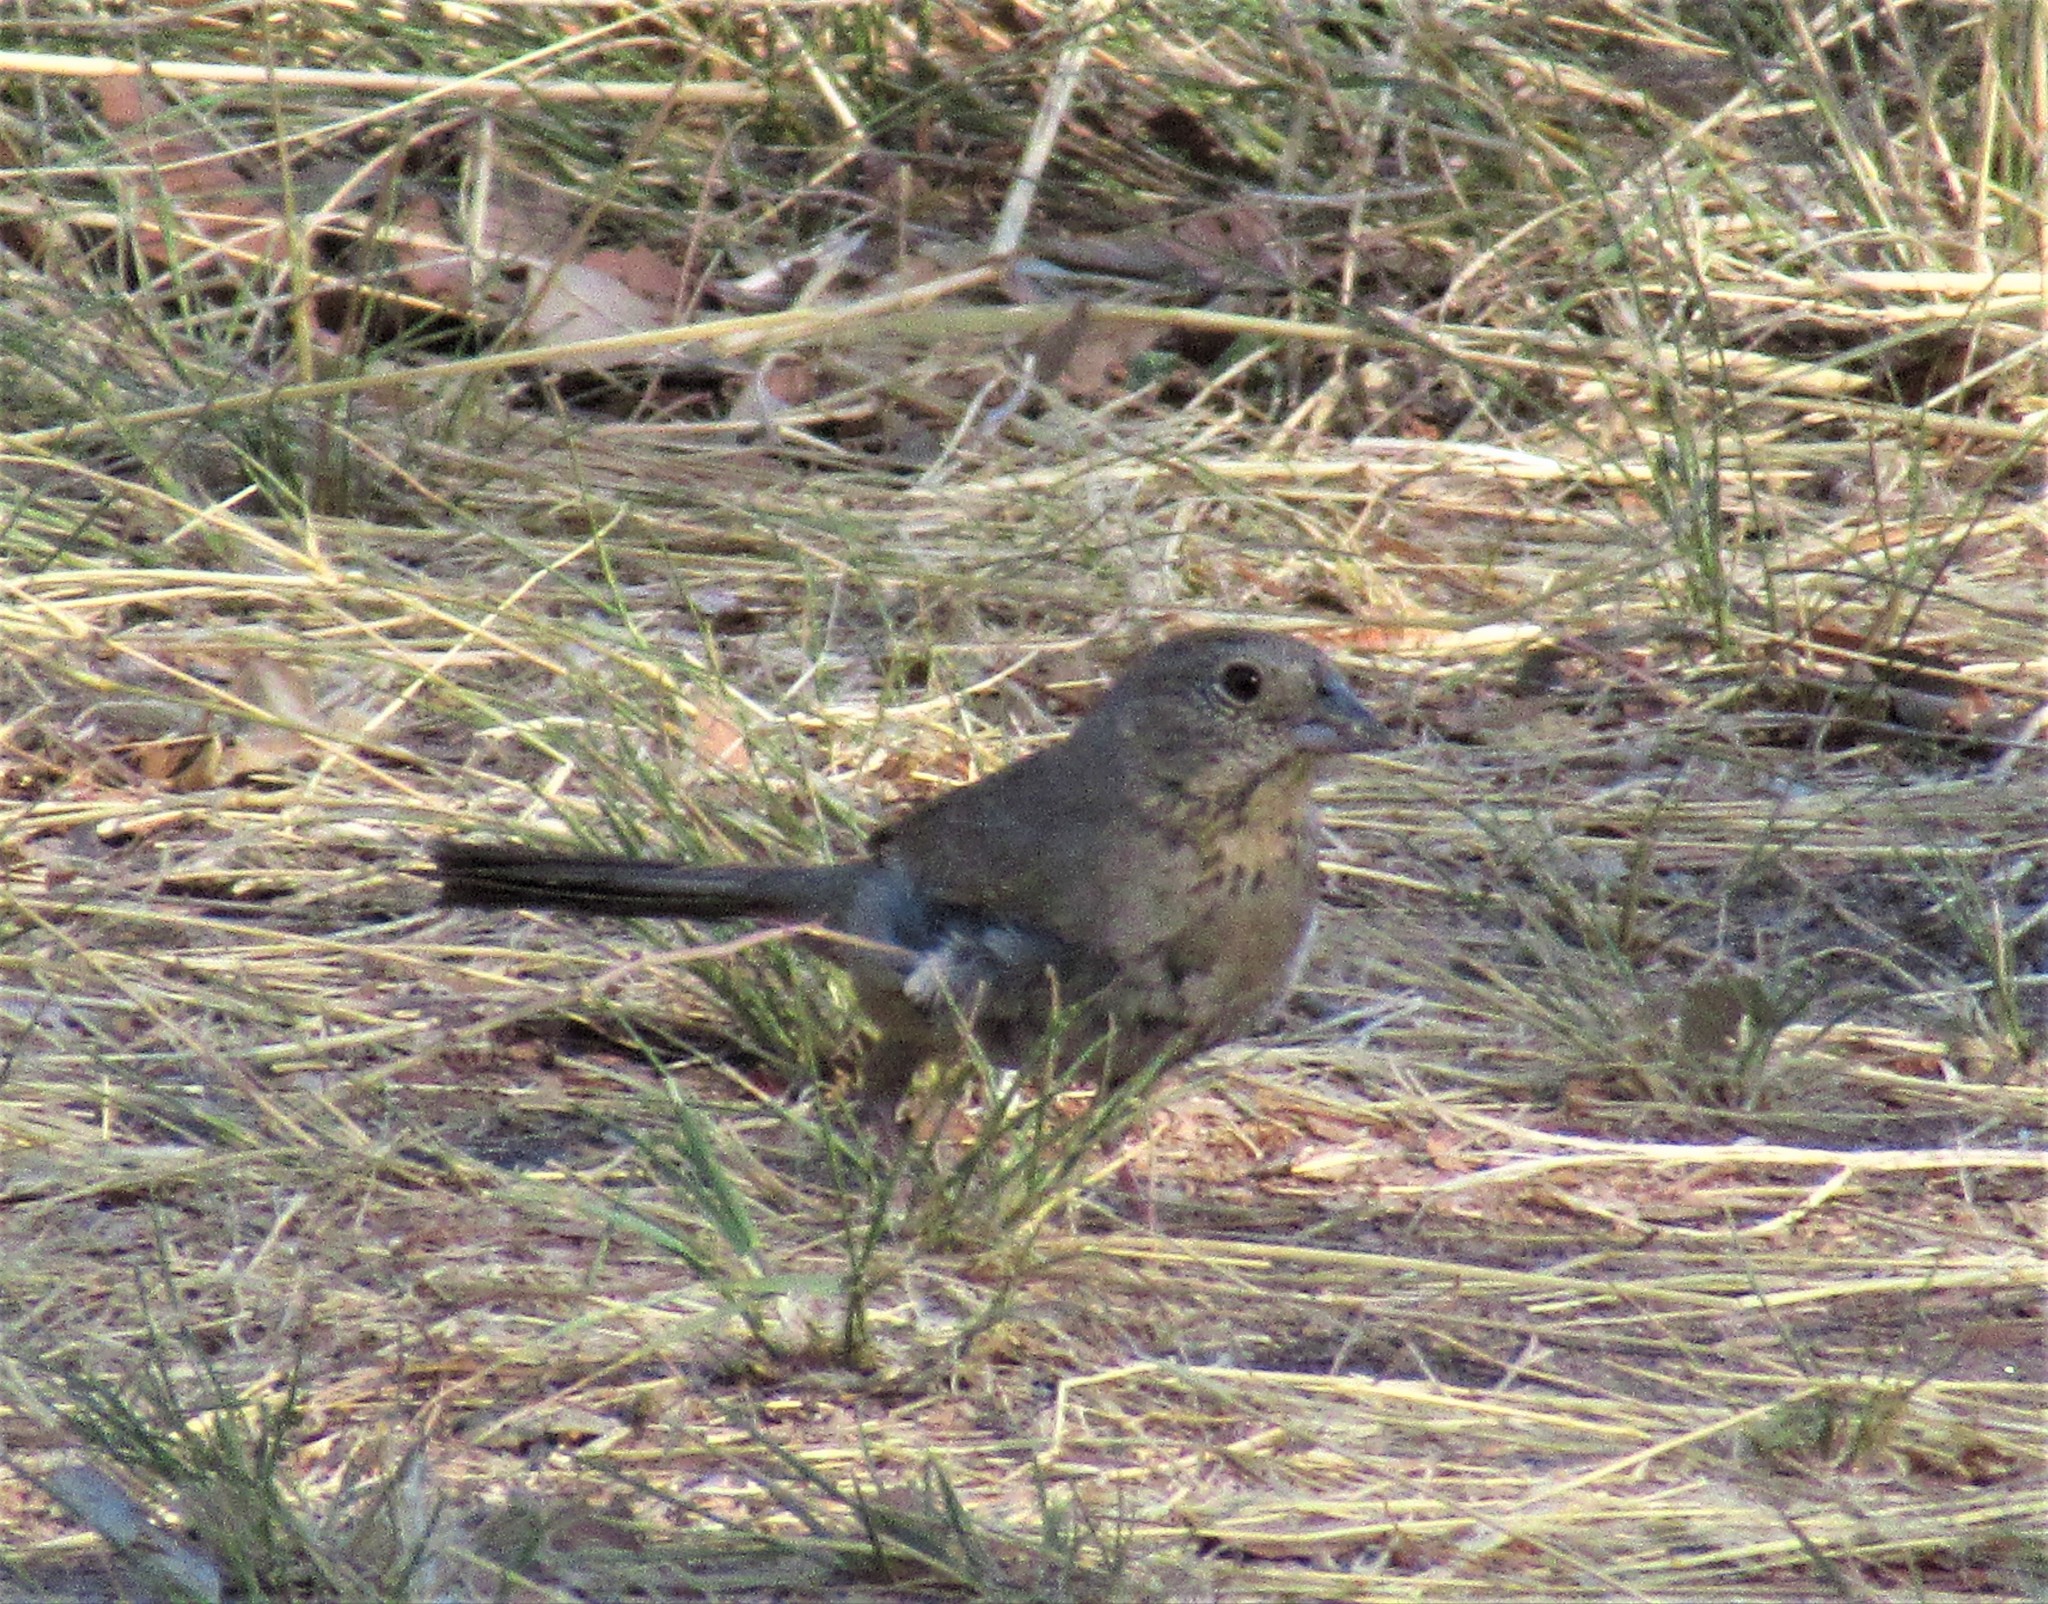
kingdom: Animalia
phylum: Chordata
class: Aves
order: Passeriformes
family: Passerellidae
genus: Melozone
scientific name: Melozone fusca
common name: Canyon towhee
